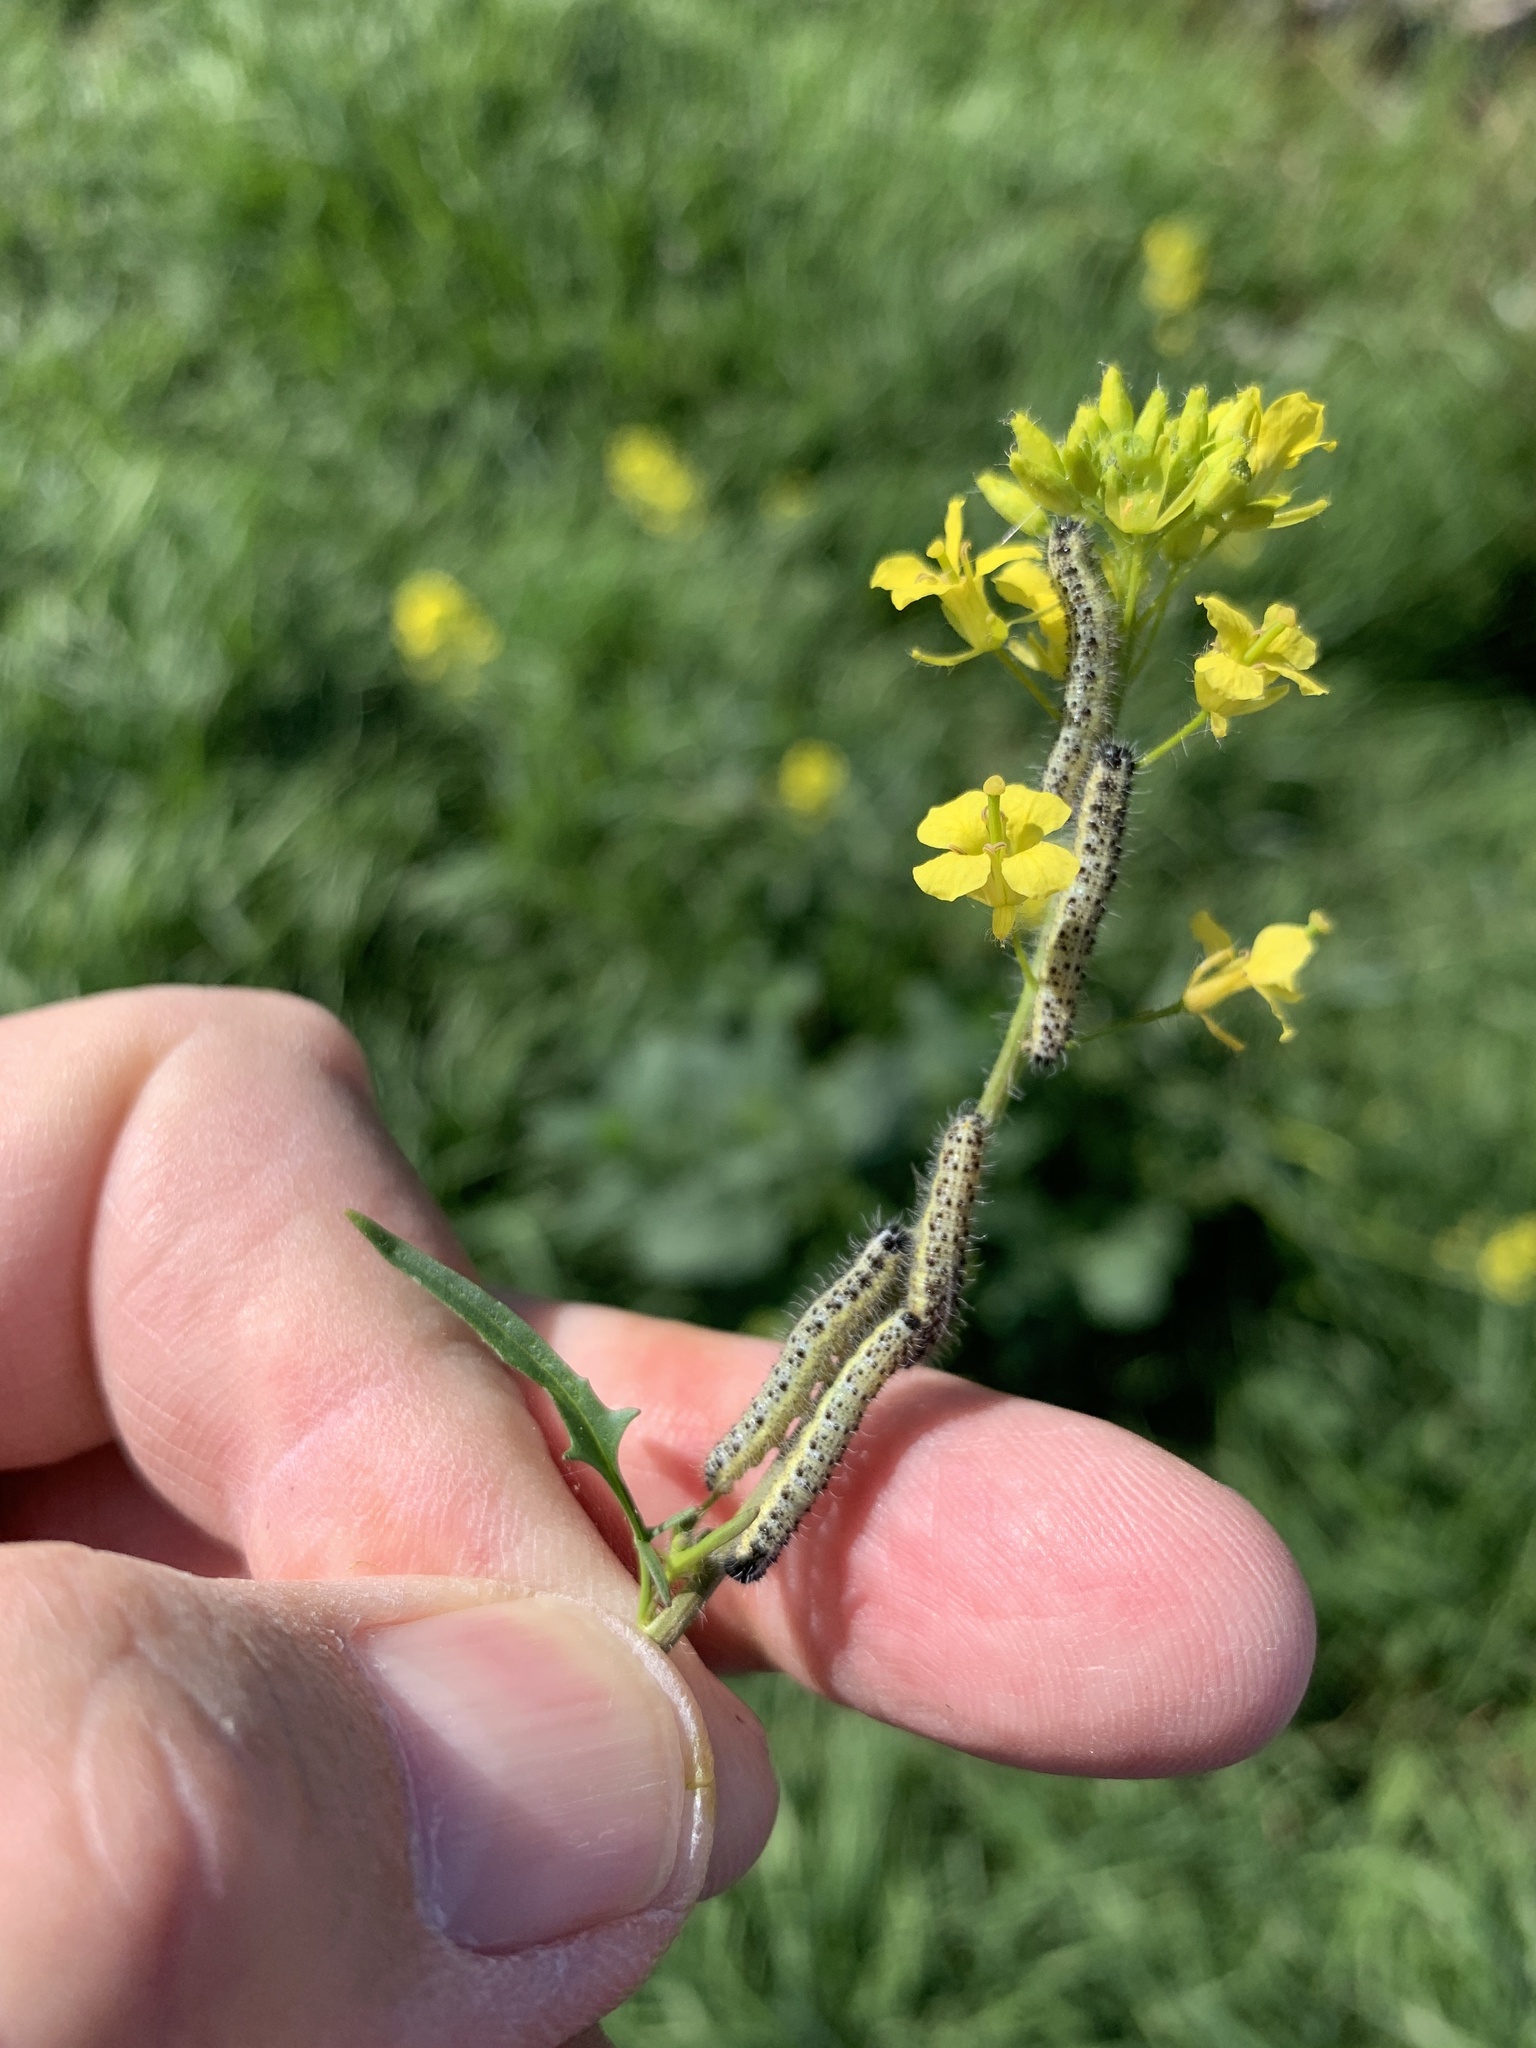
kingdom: Animalia
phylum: Arthropoda
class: Insecta
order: Lepidoptera
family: Pieridae
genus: Pieris
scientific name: Pieris brassicae
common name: Large white
